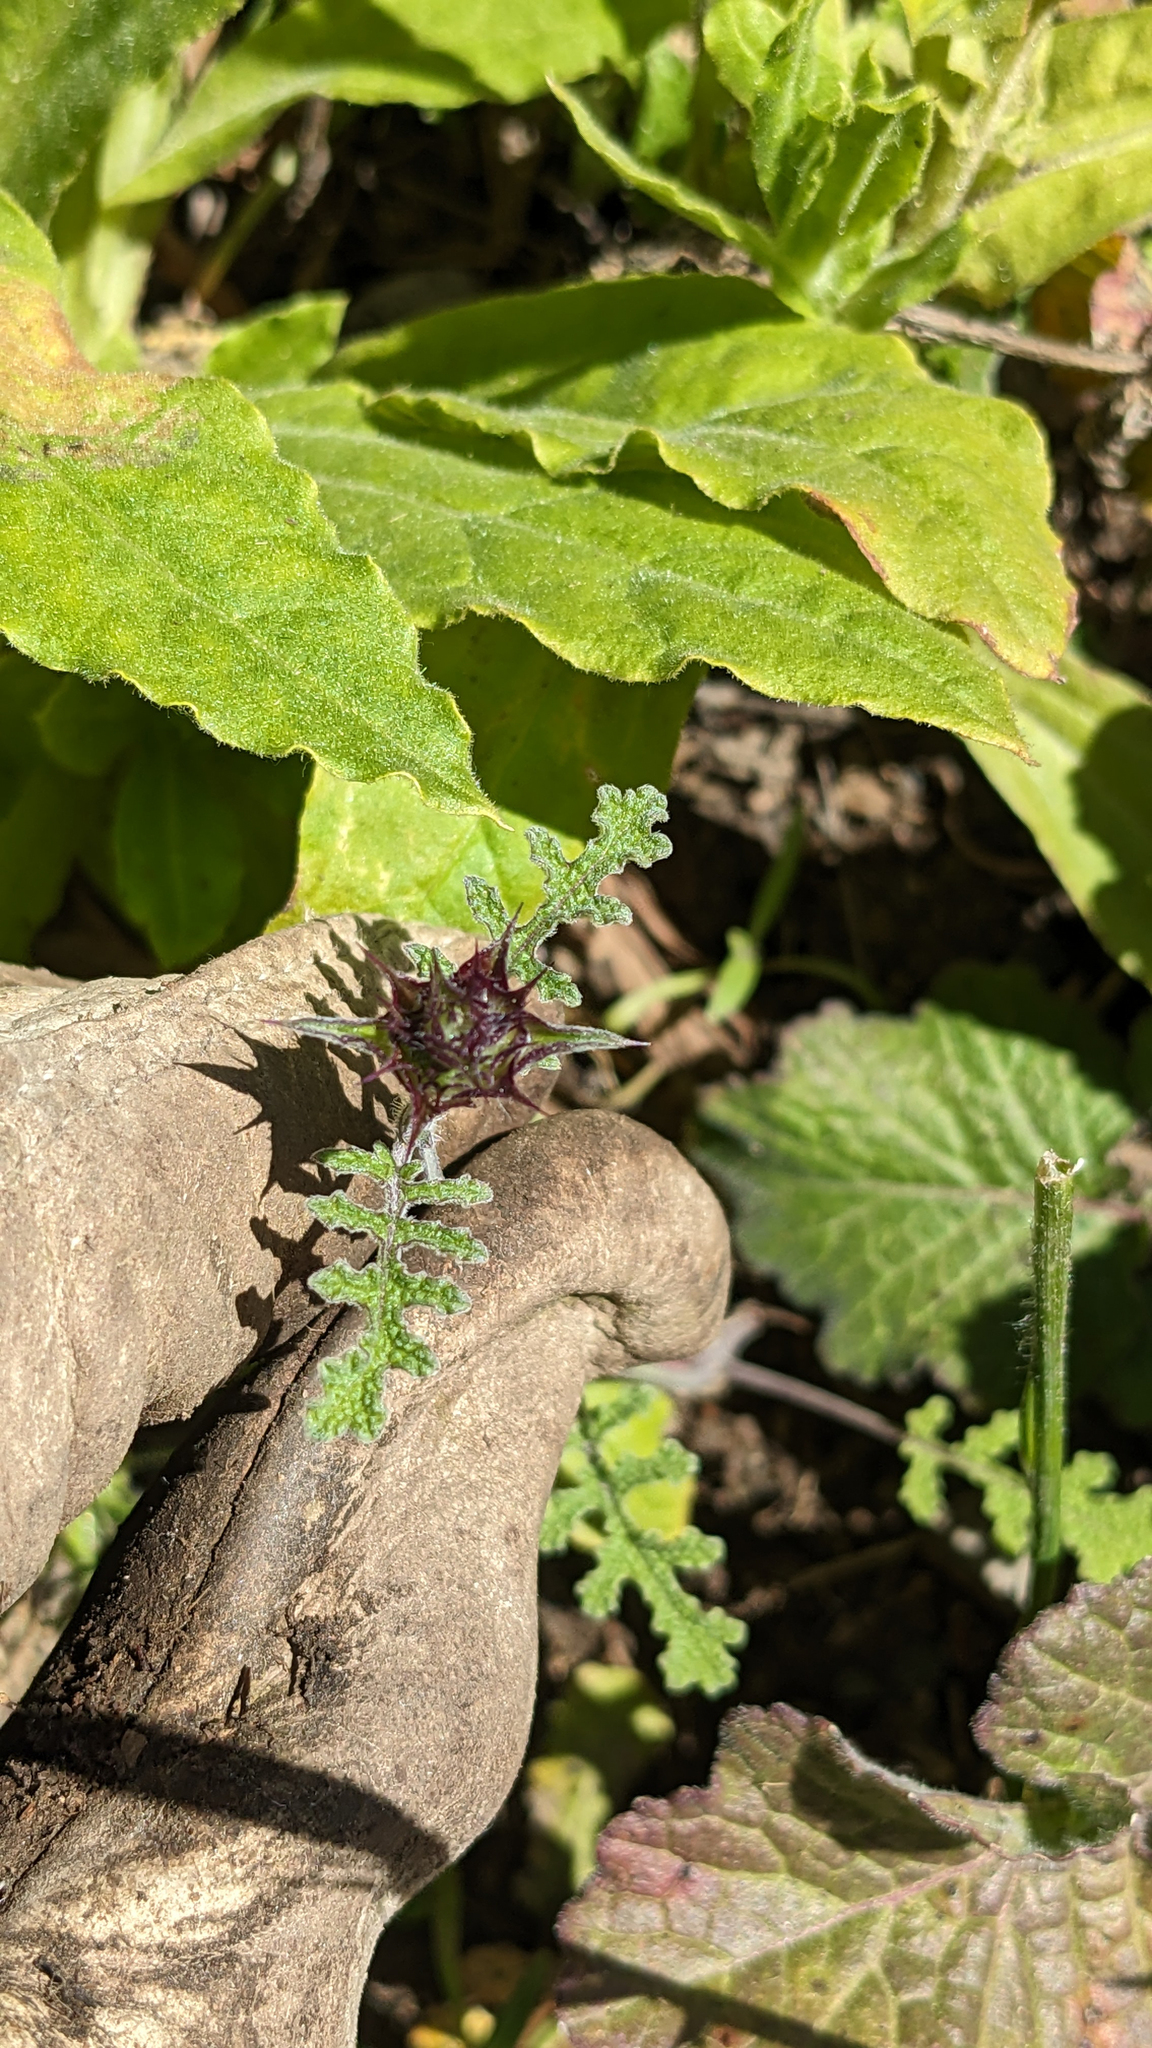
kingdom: Plantae
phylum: Tracheophyta
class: Magnoliopsida
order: Lamiales
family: Lamiaceae
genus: Salvia
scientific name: Salvia columbariae
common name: Chia
